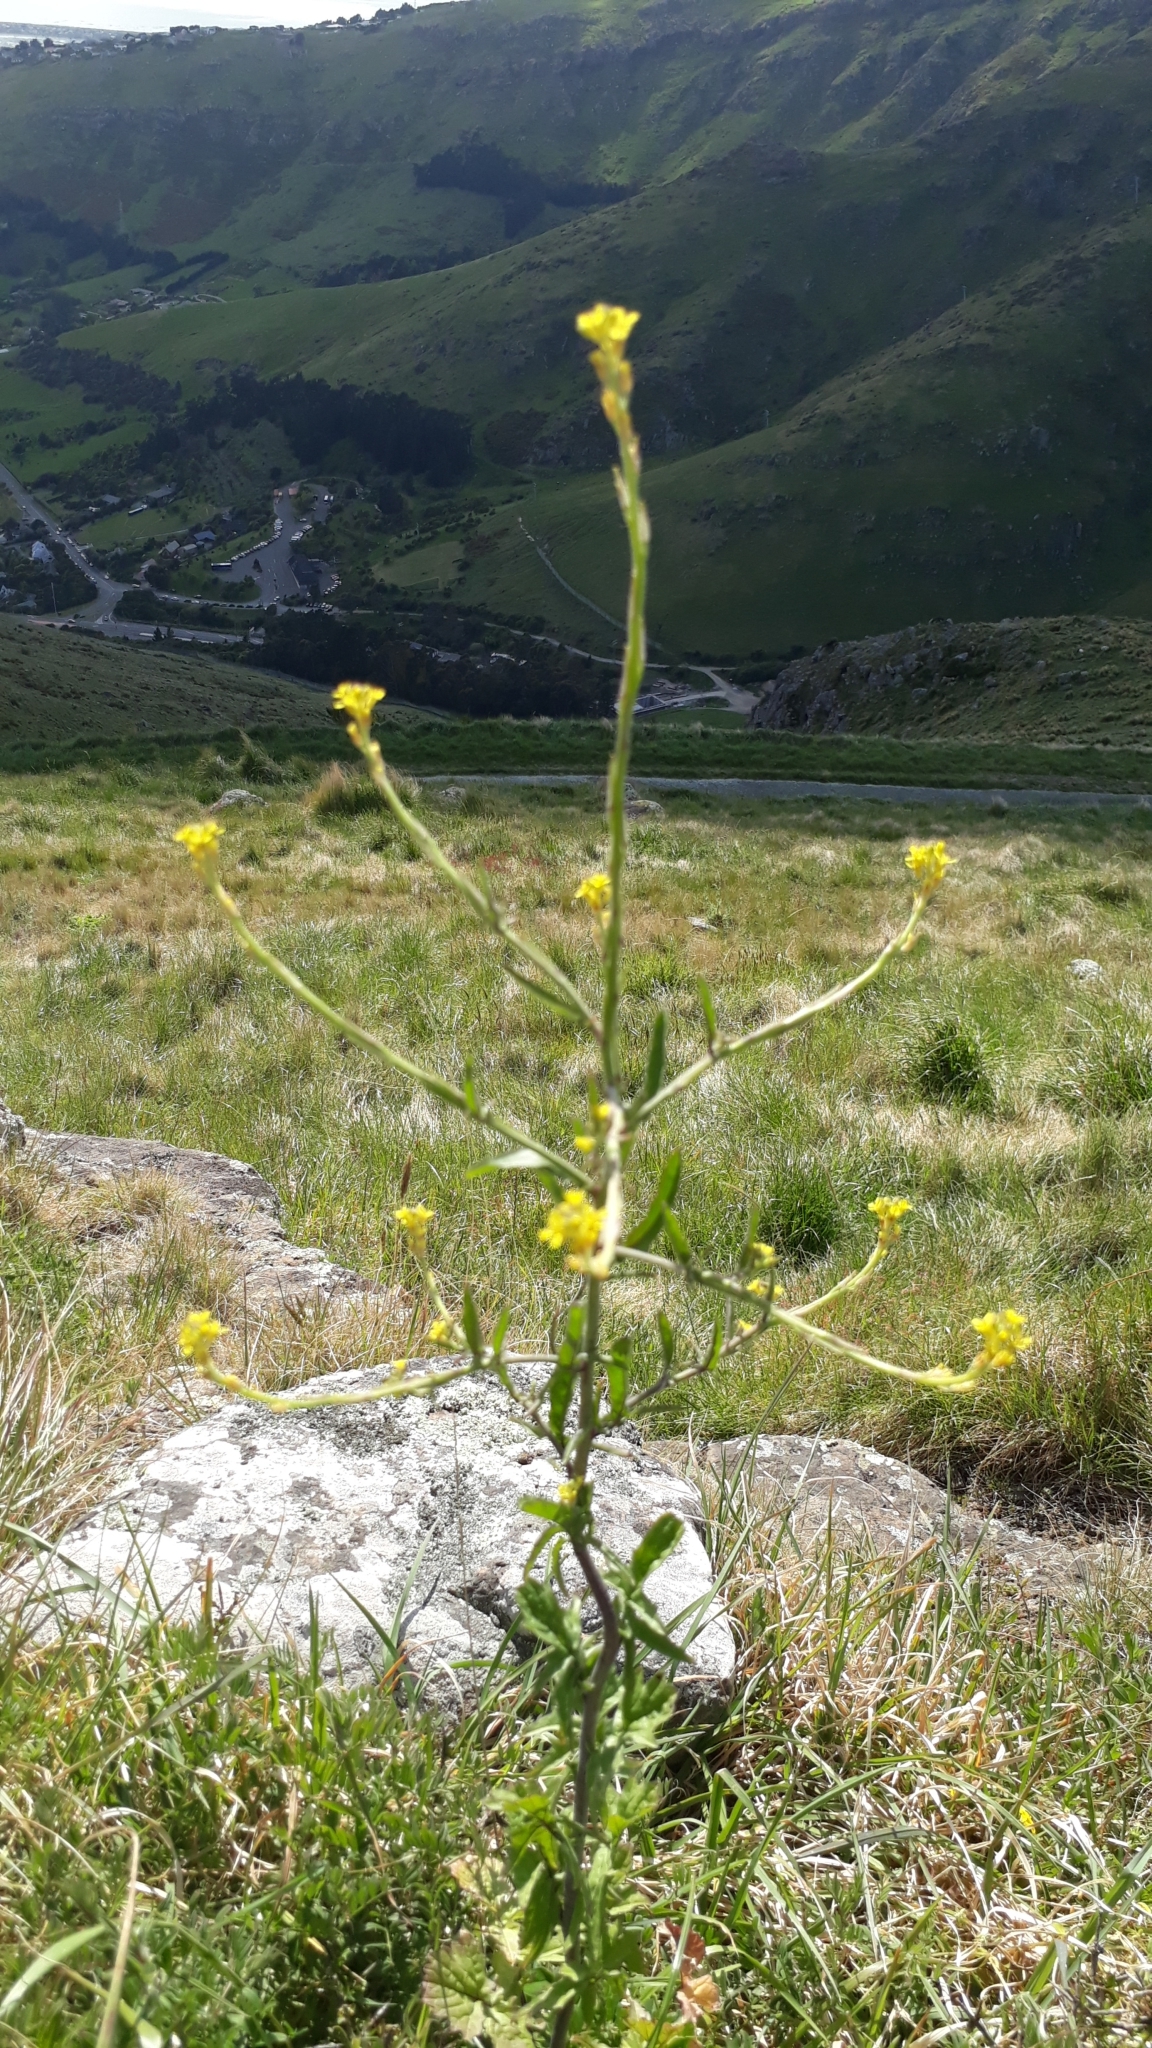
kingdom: Plantae
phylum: Tracheophyta
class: Magnoliopsida
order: Brassicales
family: Brassicaceae
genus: Sisymbrium
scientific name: Sisymbrium officinale
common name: Hedge mustard
